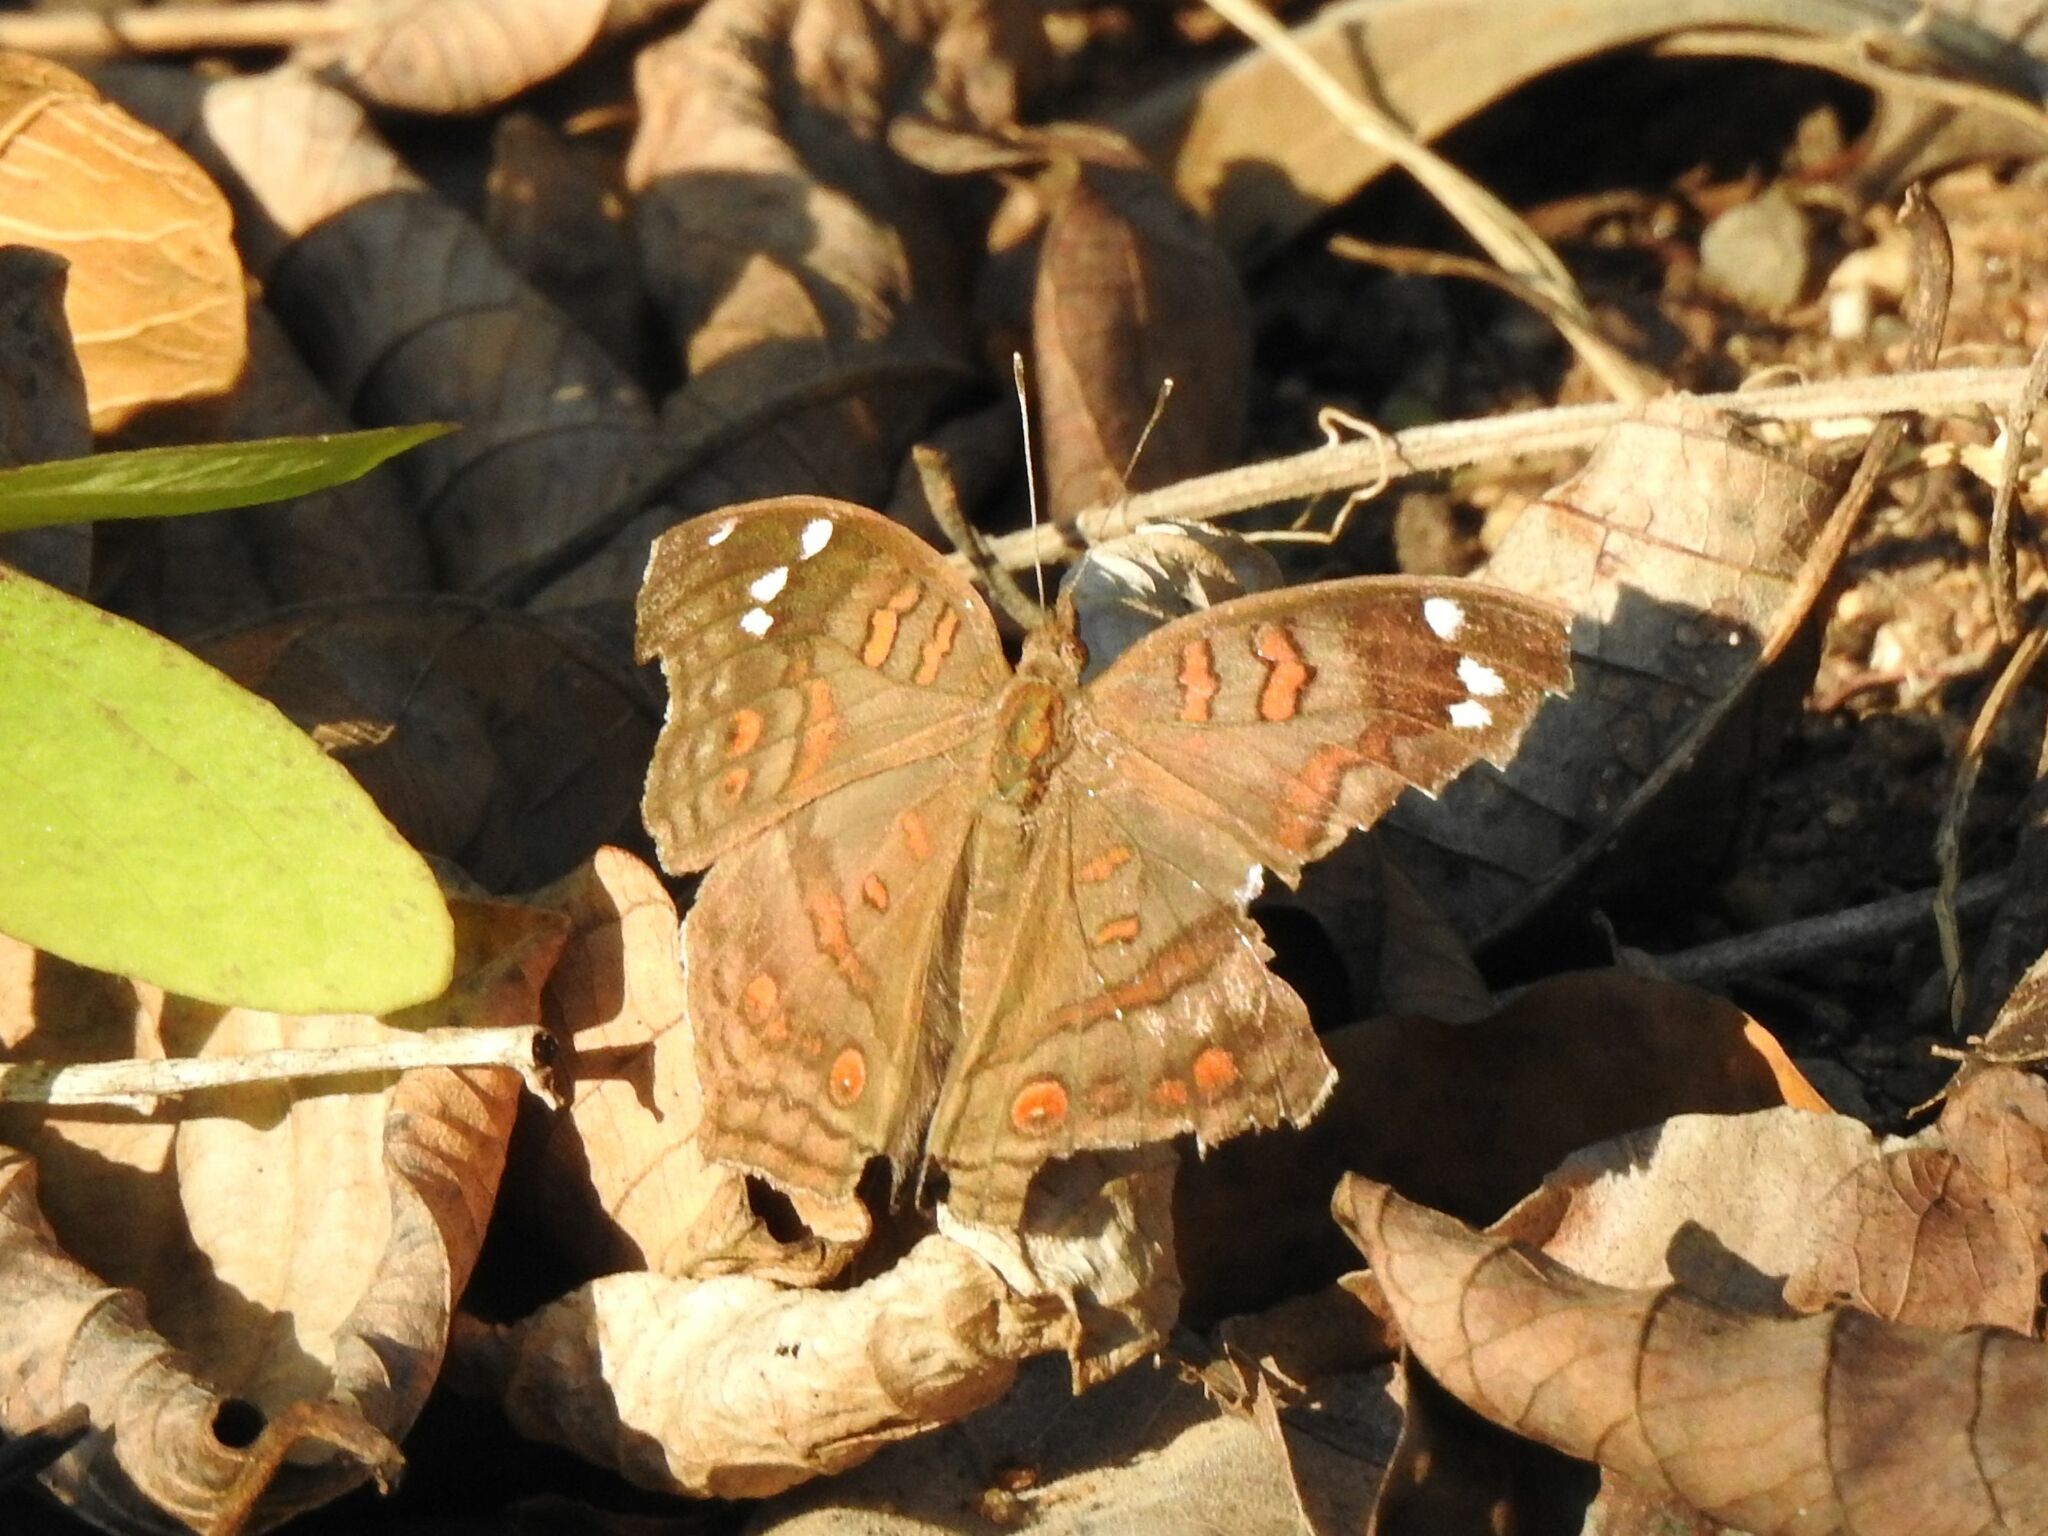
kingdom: Animalia
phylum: Arthropoda
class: Insecta
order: Lepidoptera
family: Nymphalidae
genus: Junonia
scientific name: Junonia natalica
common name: Brown pansy
